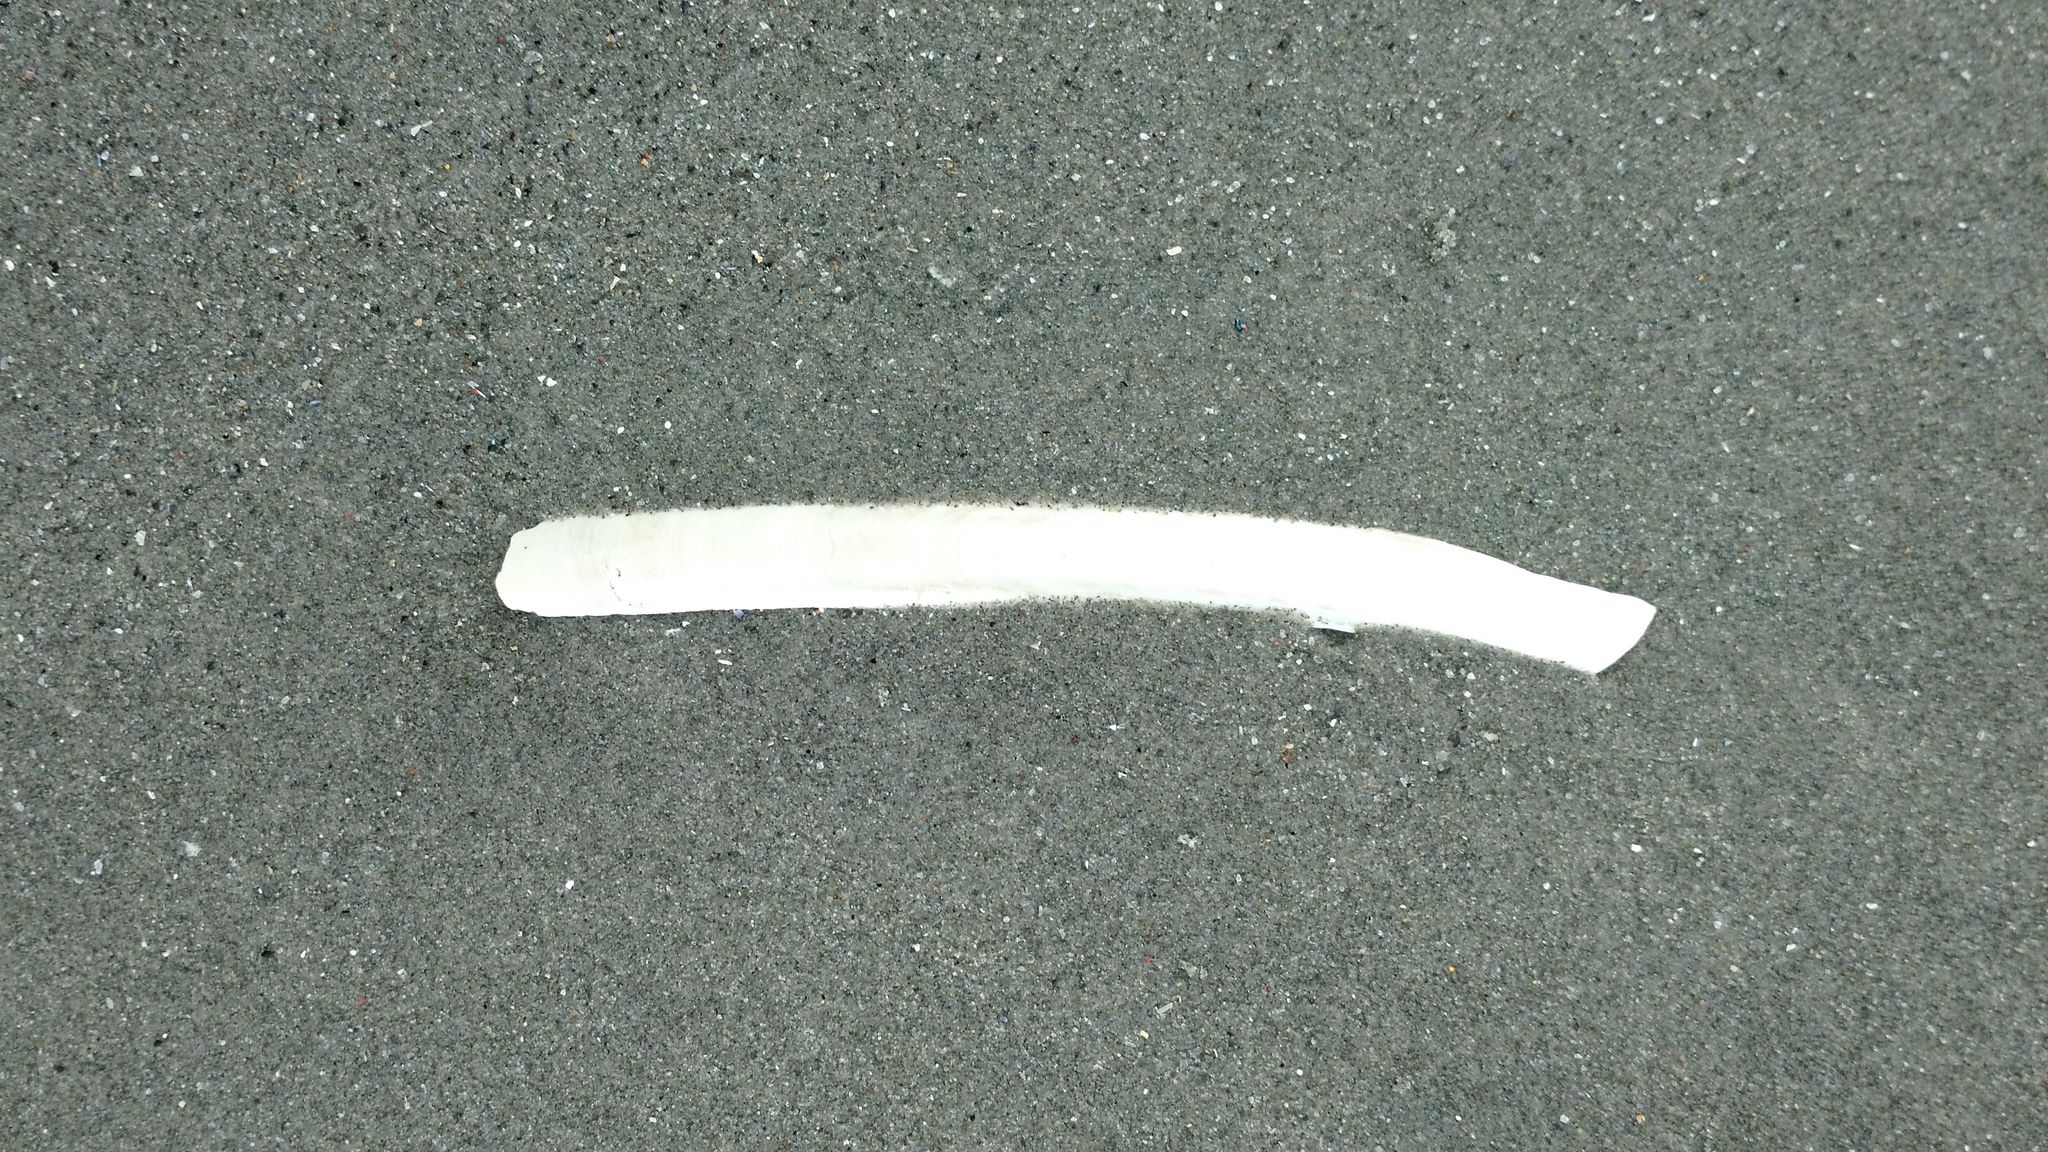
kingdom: Animalia
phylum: Mollusca
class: Bivalvia
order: Adapedonta
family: Pharidae
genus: Ensis
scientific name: Ensis leei
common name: American jack knife clam
